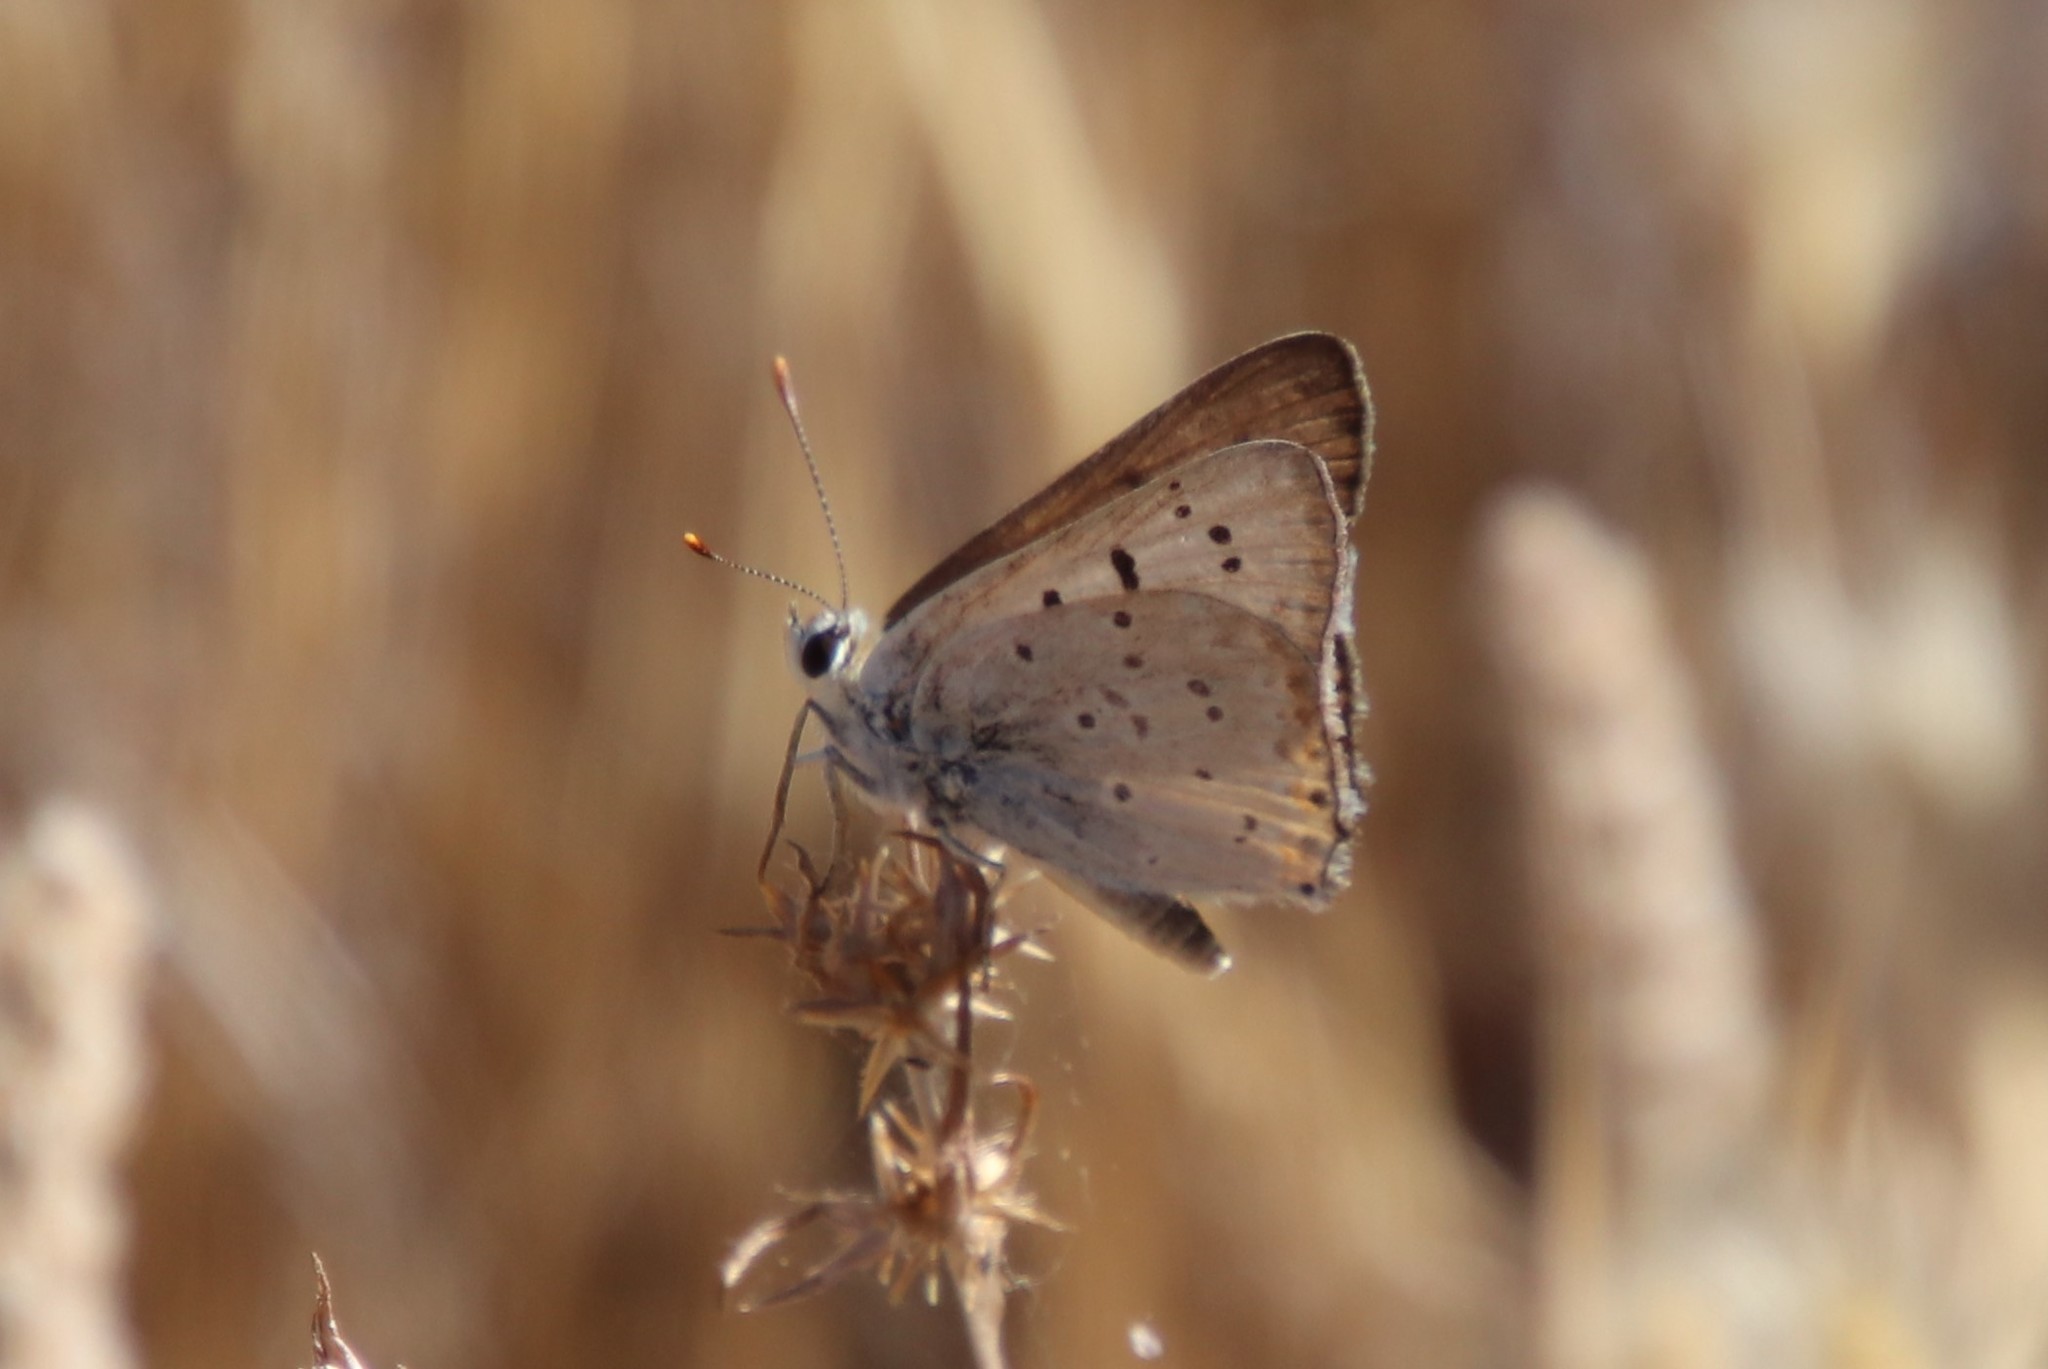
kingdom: Animalia
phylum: Arthropoda
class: Insecta
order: Lepidoptera
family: Lycaenidae
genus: Tharsalea
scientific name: Tharsalea xanthoides
